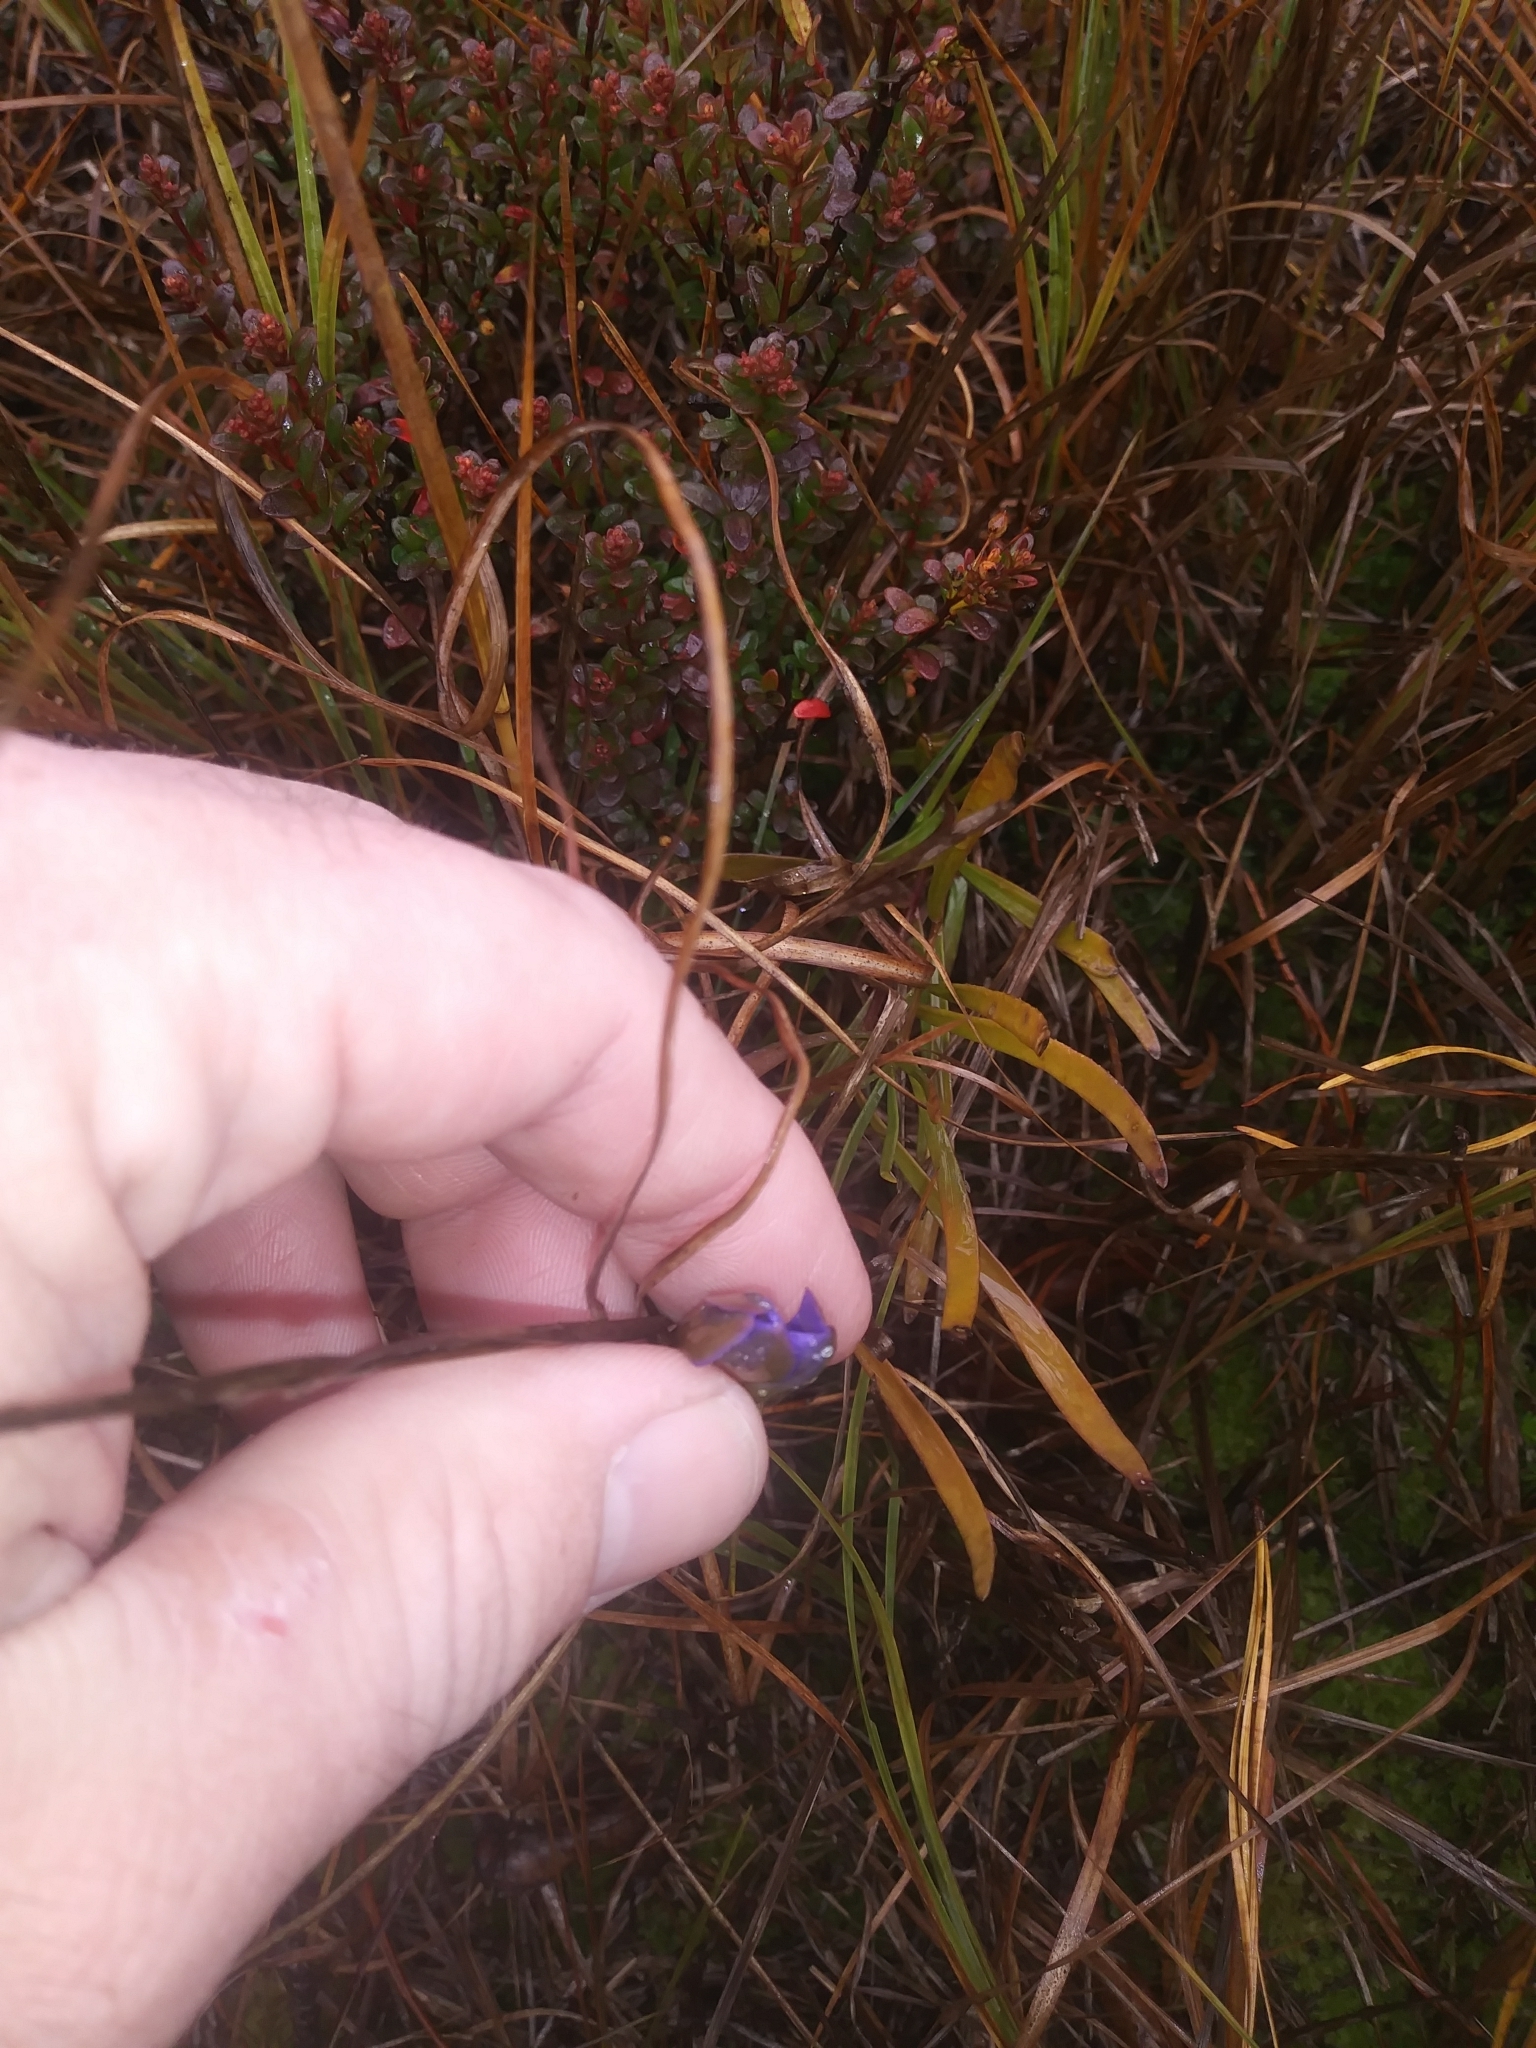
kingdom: Plantae
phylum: Tracheophyta
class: Magnoliopsida
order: Gentianales
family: Gentianaceae
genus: Gentiana
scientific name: Gentiana autumnalis
